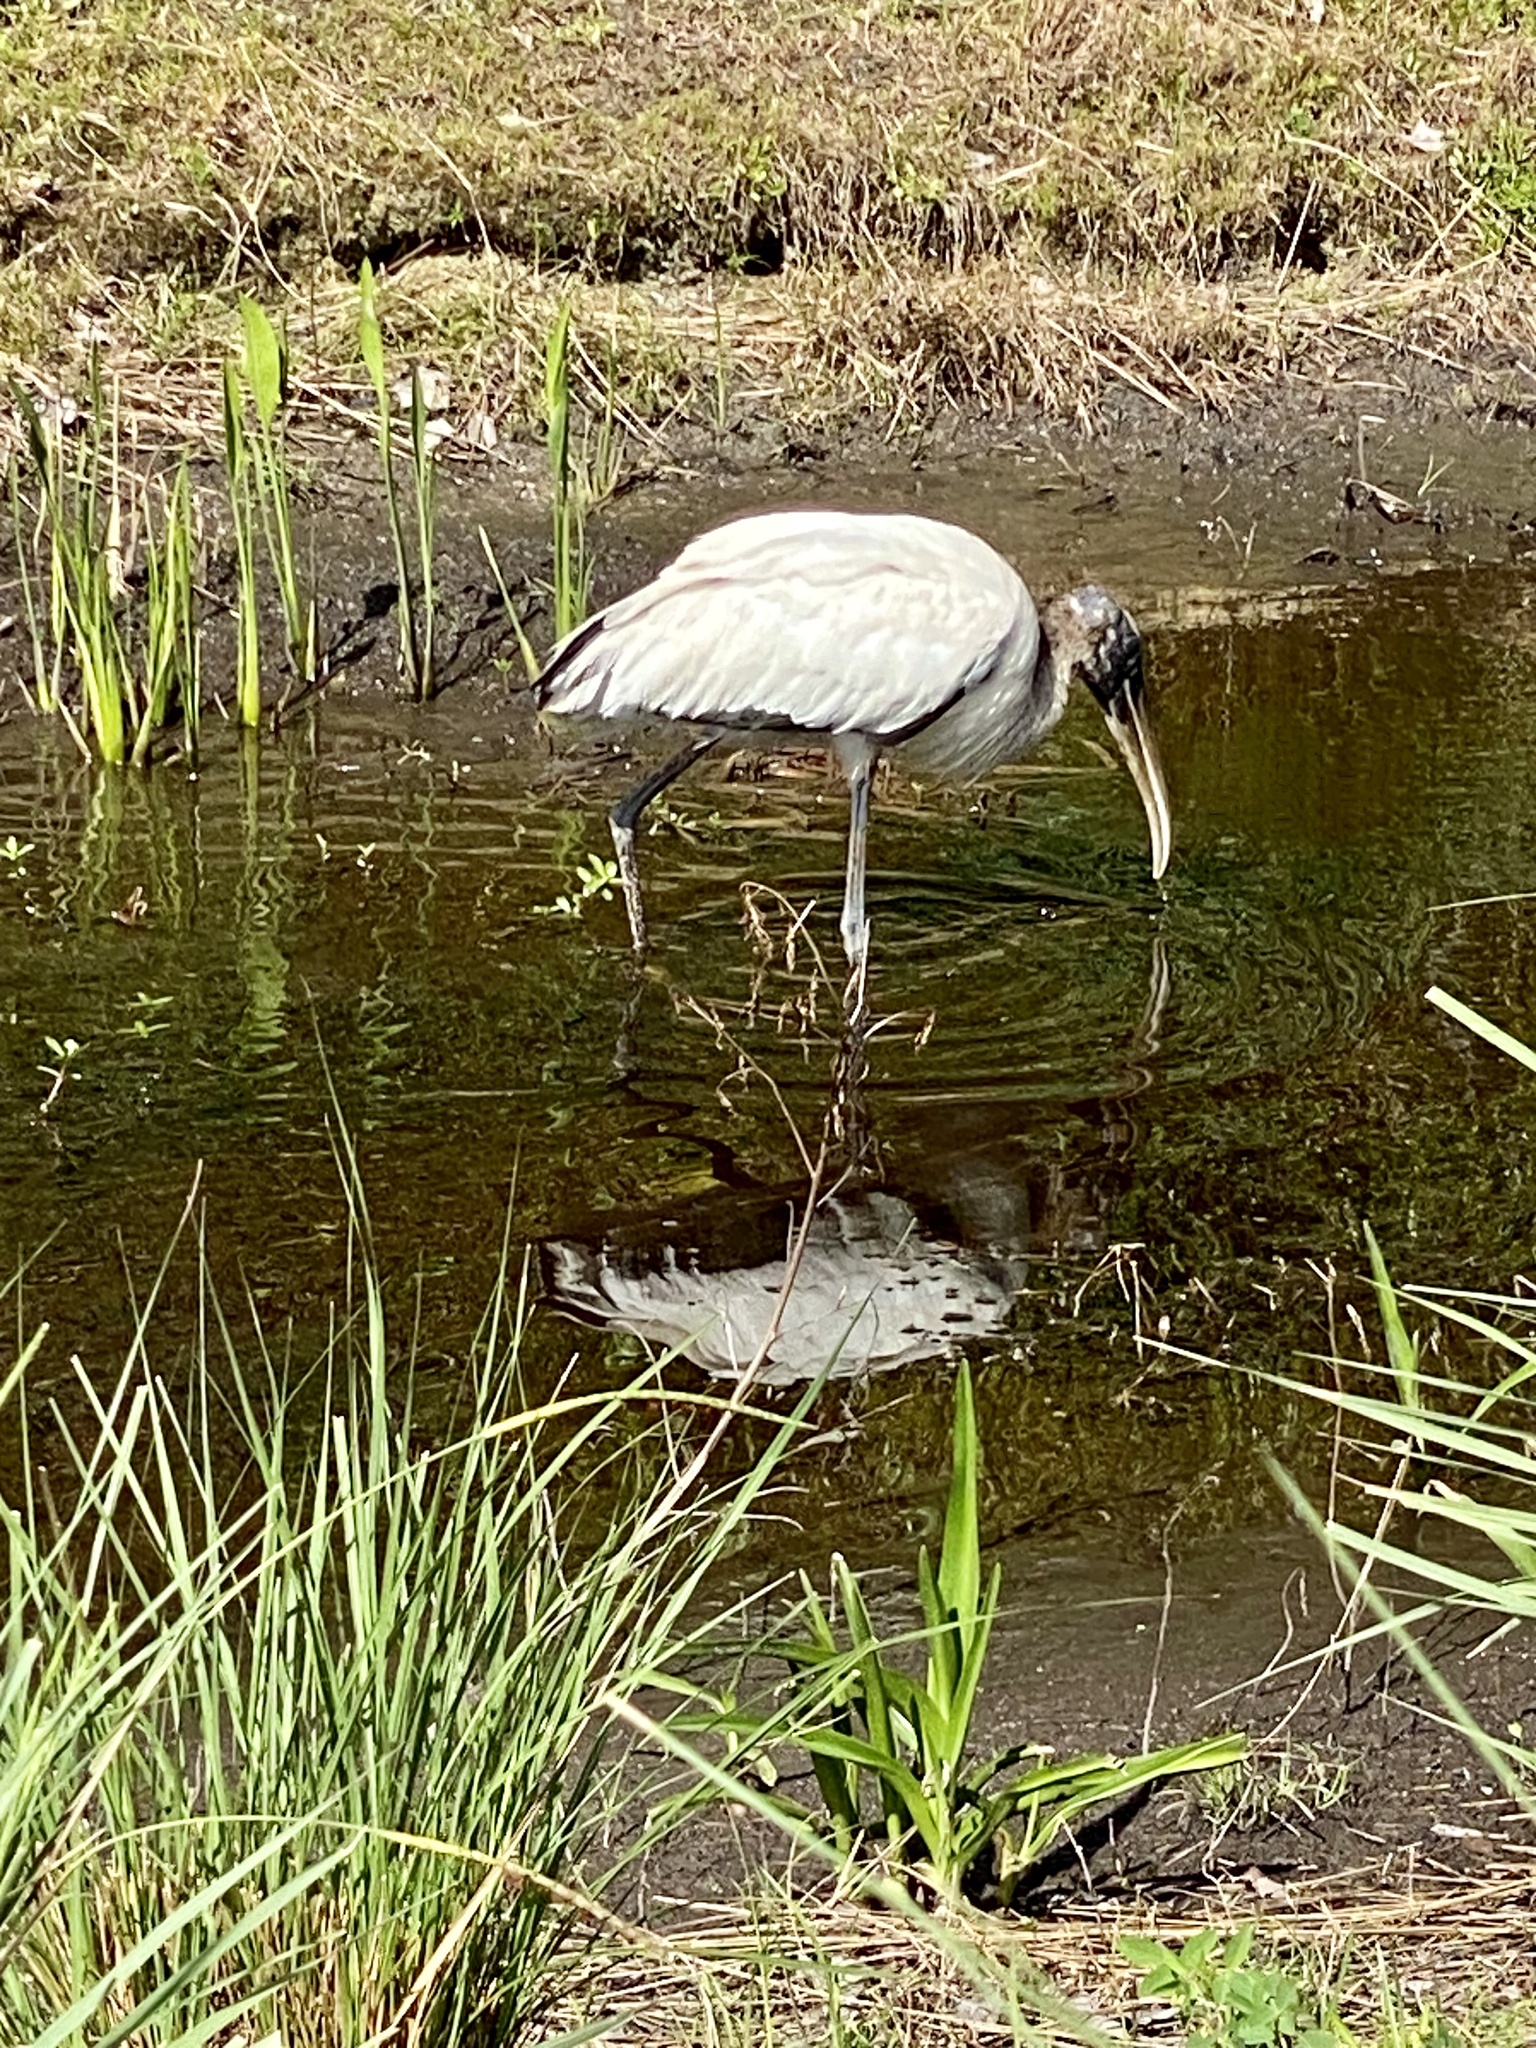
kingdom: Animalia
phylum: Chordata
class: Aves
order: Ciconiiformes
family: Ciconiidae
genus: Mycteria
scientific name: Mycteria americana
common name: Wood stork
